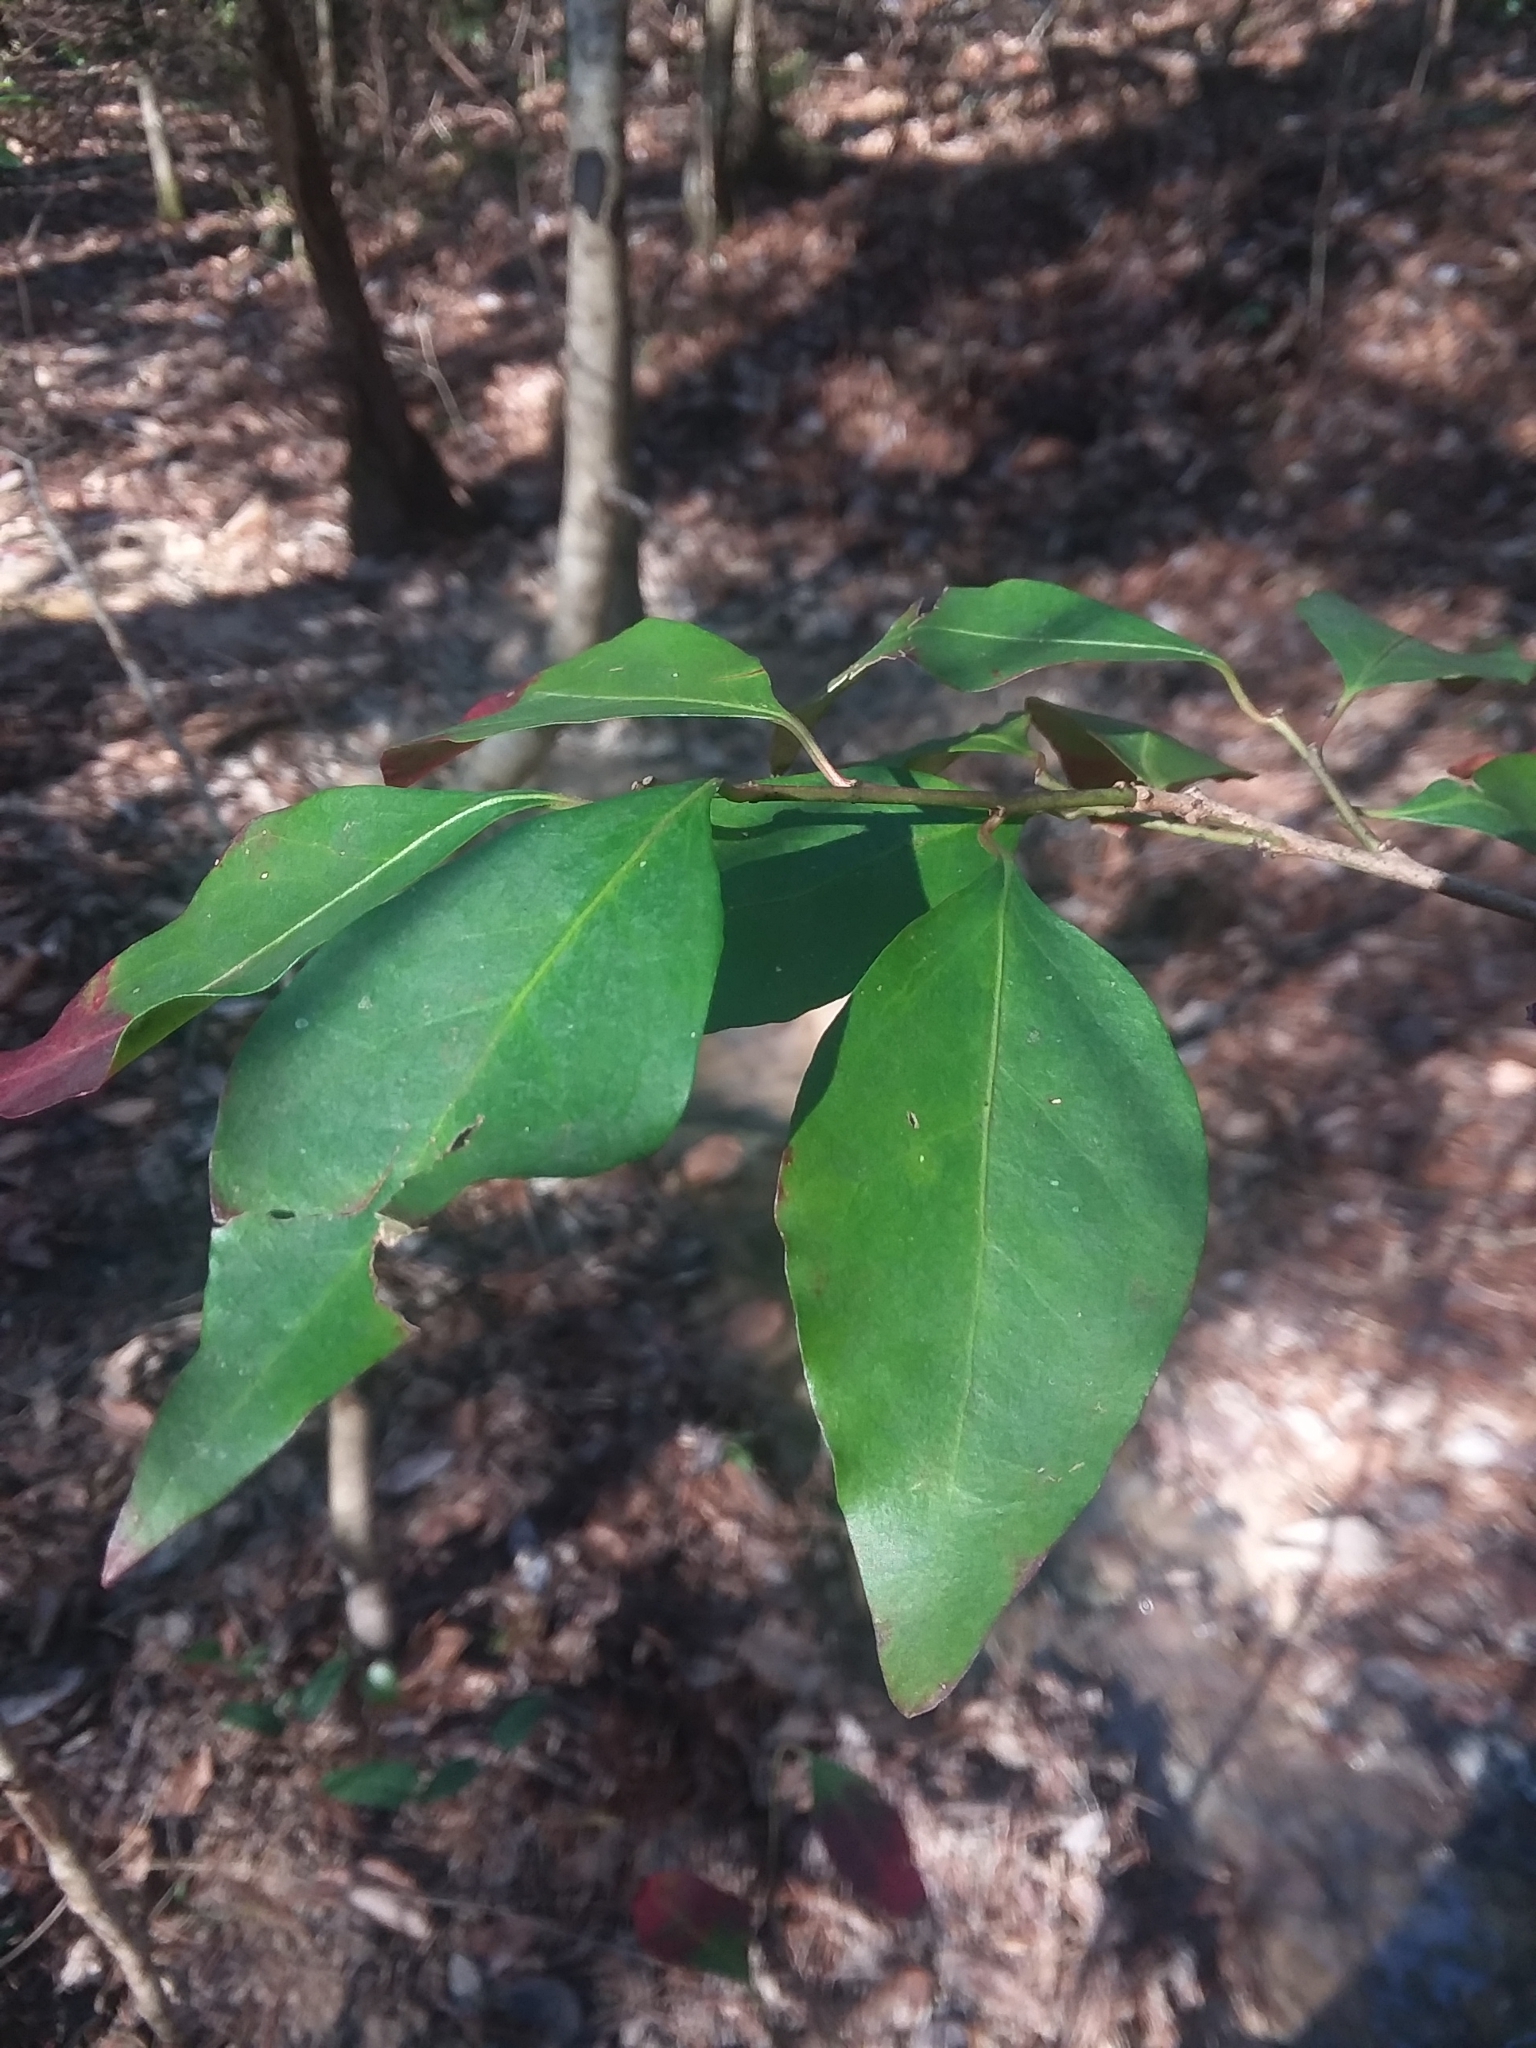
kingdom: Plantae
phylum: Tracheophyta
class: Magnoliopsida
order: Malpighiales
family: Euphorbiaceae
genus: Ditrysinia
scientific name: Ditrysinia fruticosa
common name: Gulf sebastian-bush
